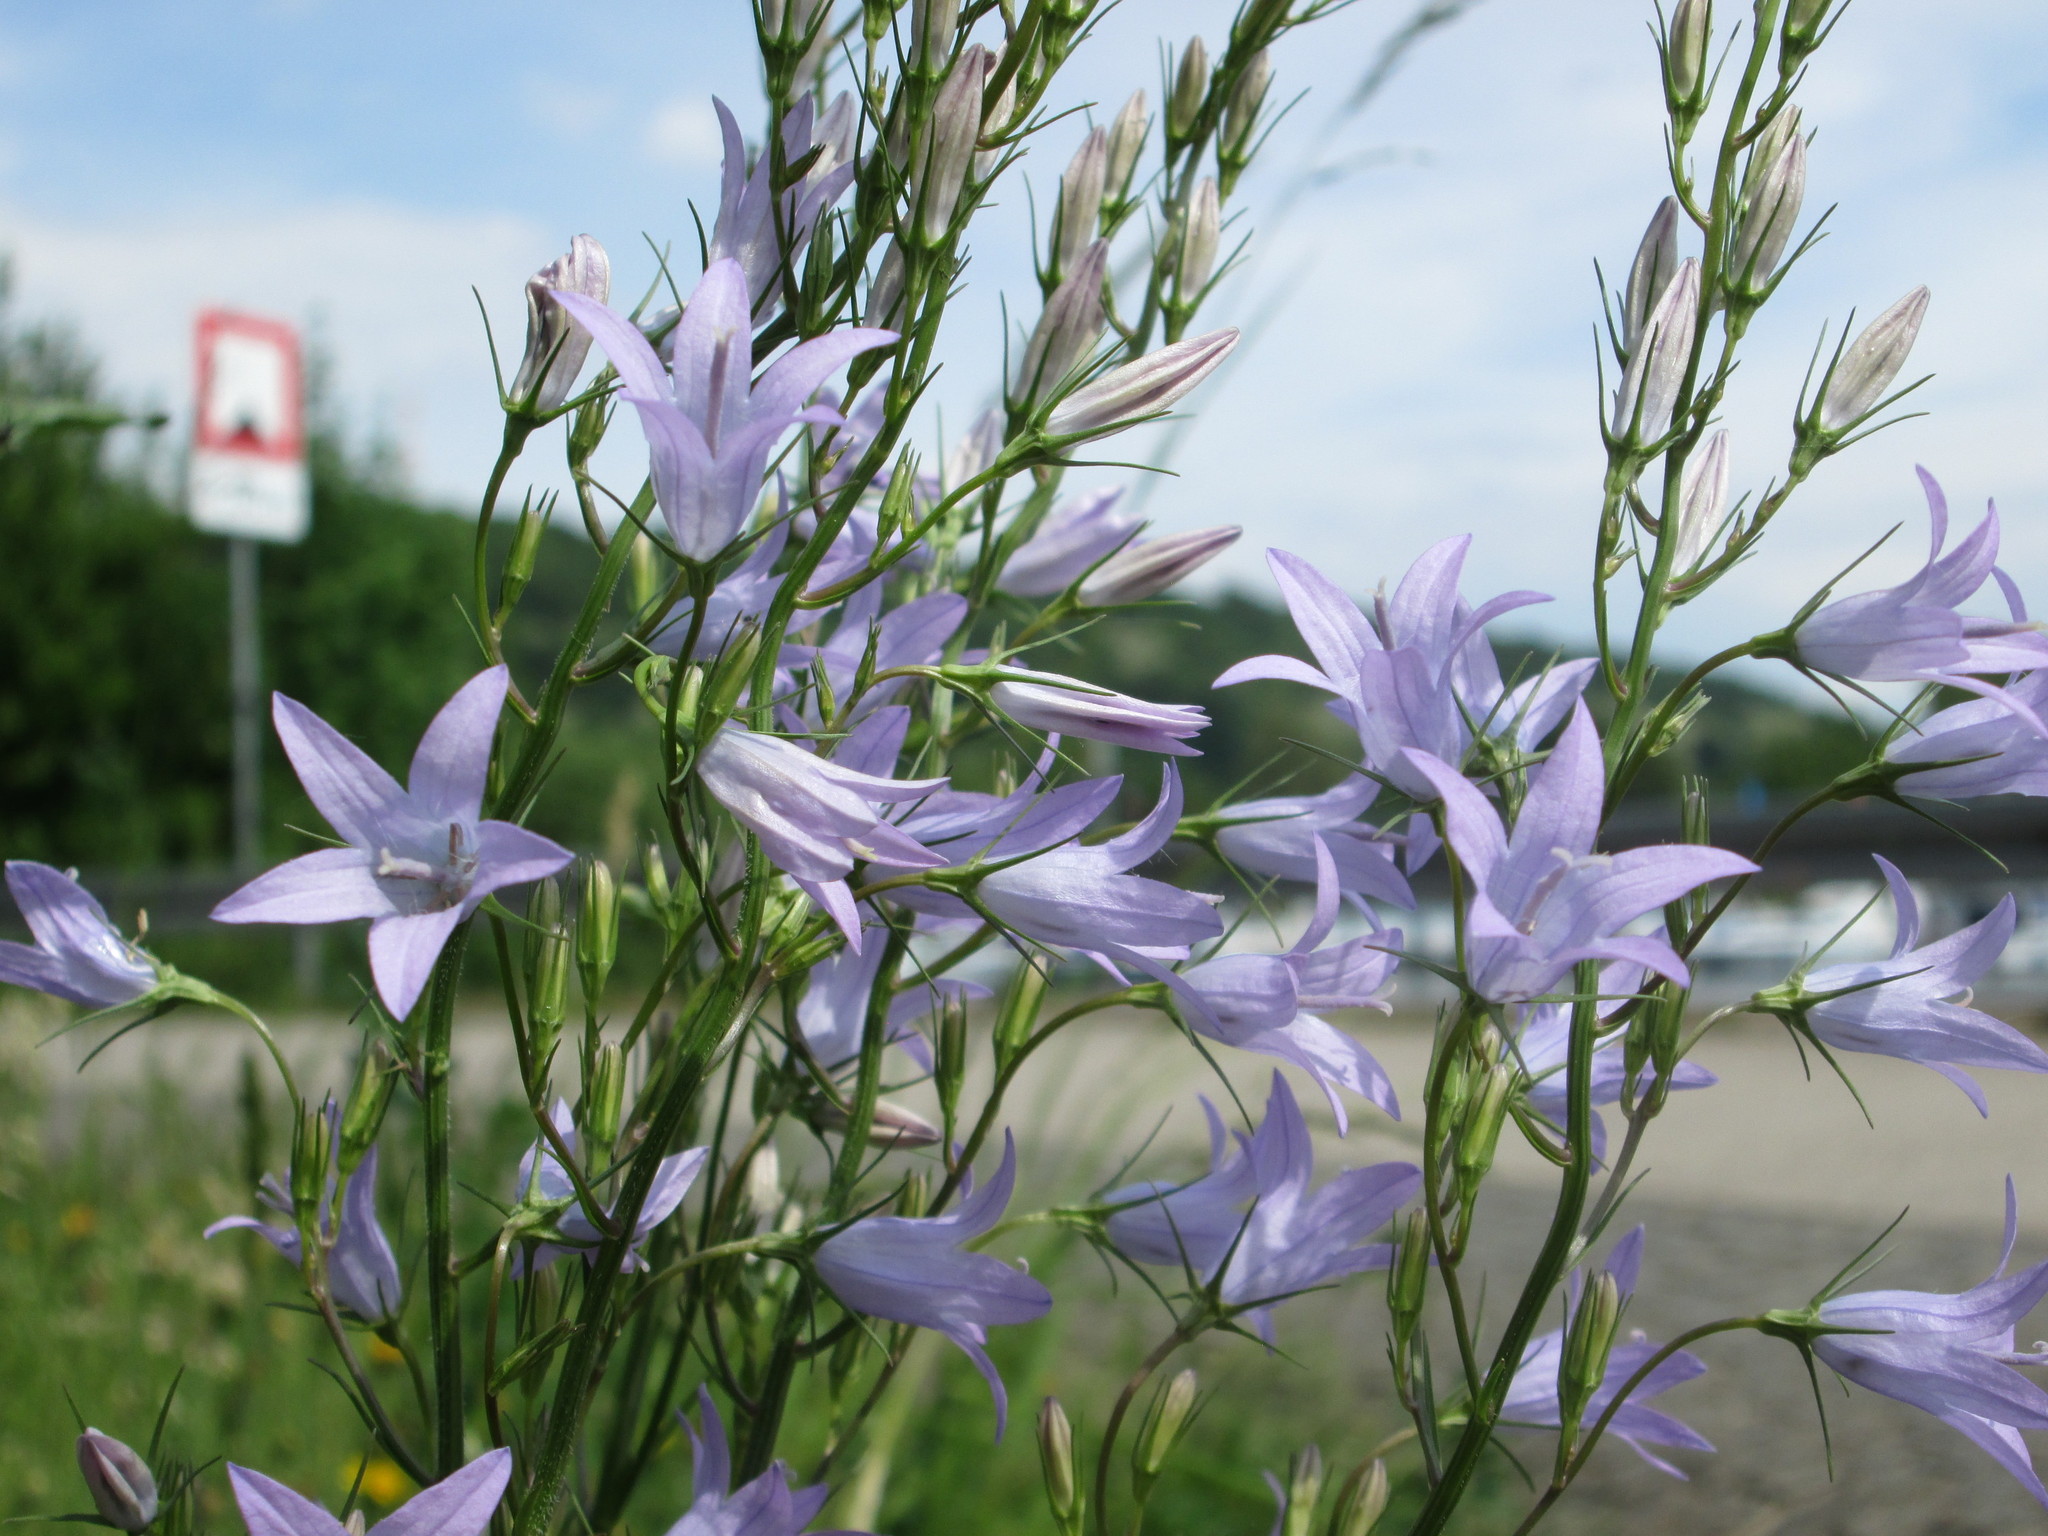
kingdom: Plantae
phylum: Tracheophyta
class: Magnoliopsida
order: Asterales
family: Campanulaceae
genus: Campanula
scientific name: Campanula rapunculus
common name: Rampion bellflower
